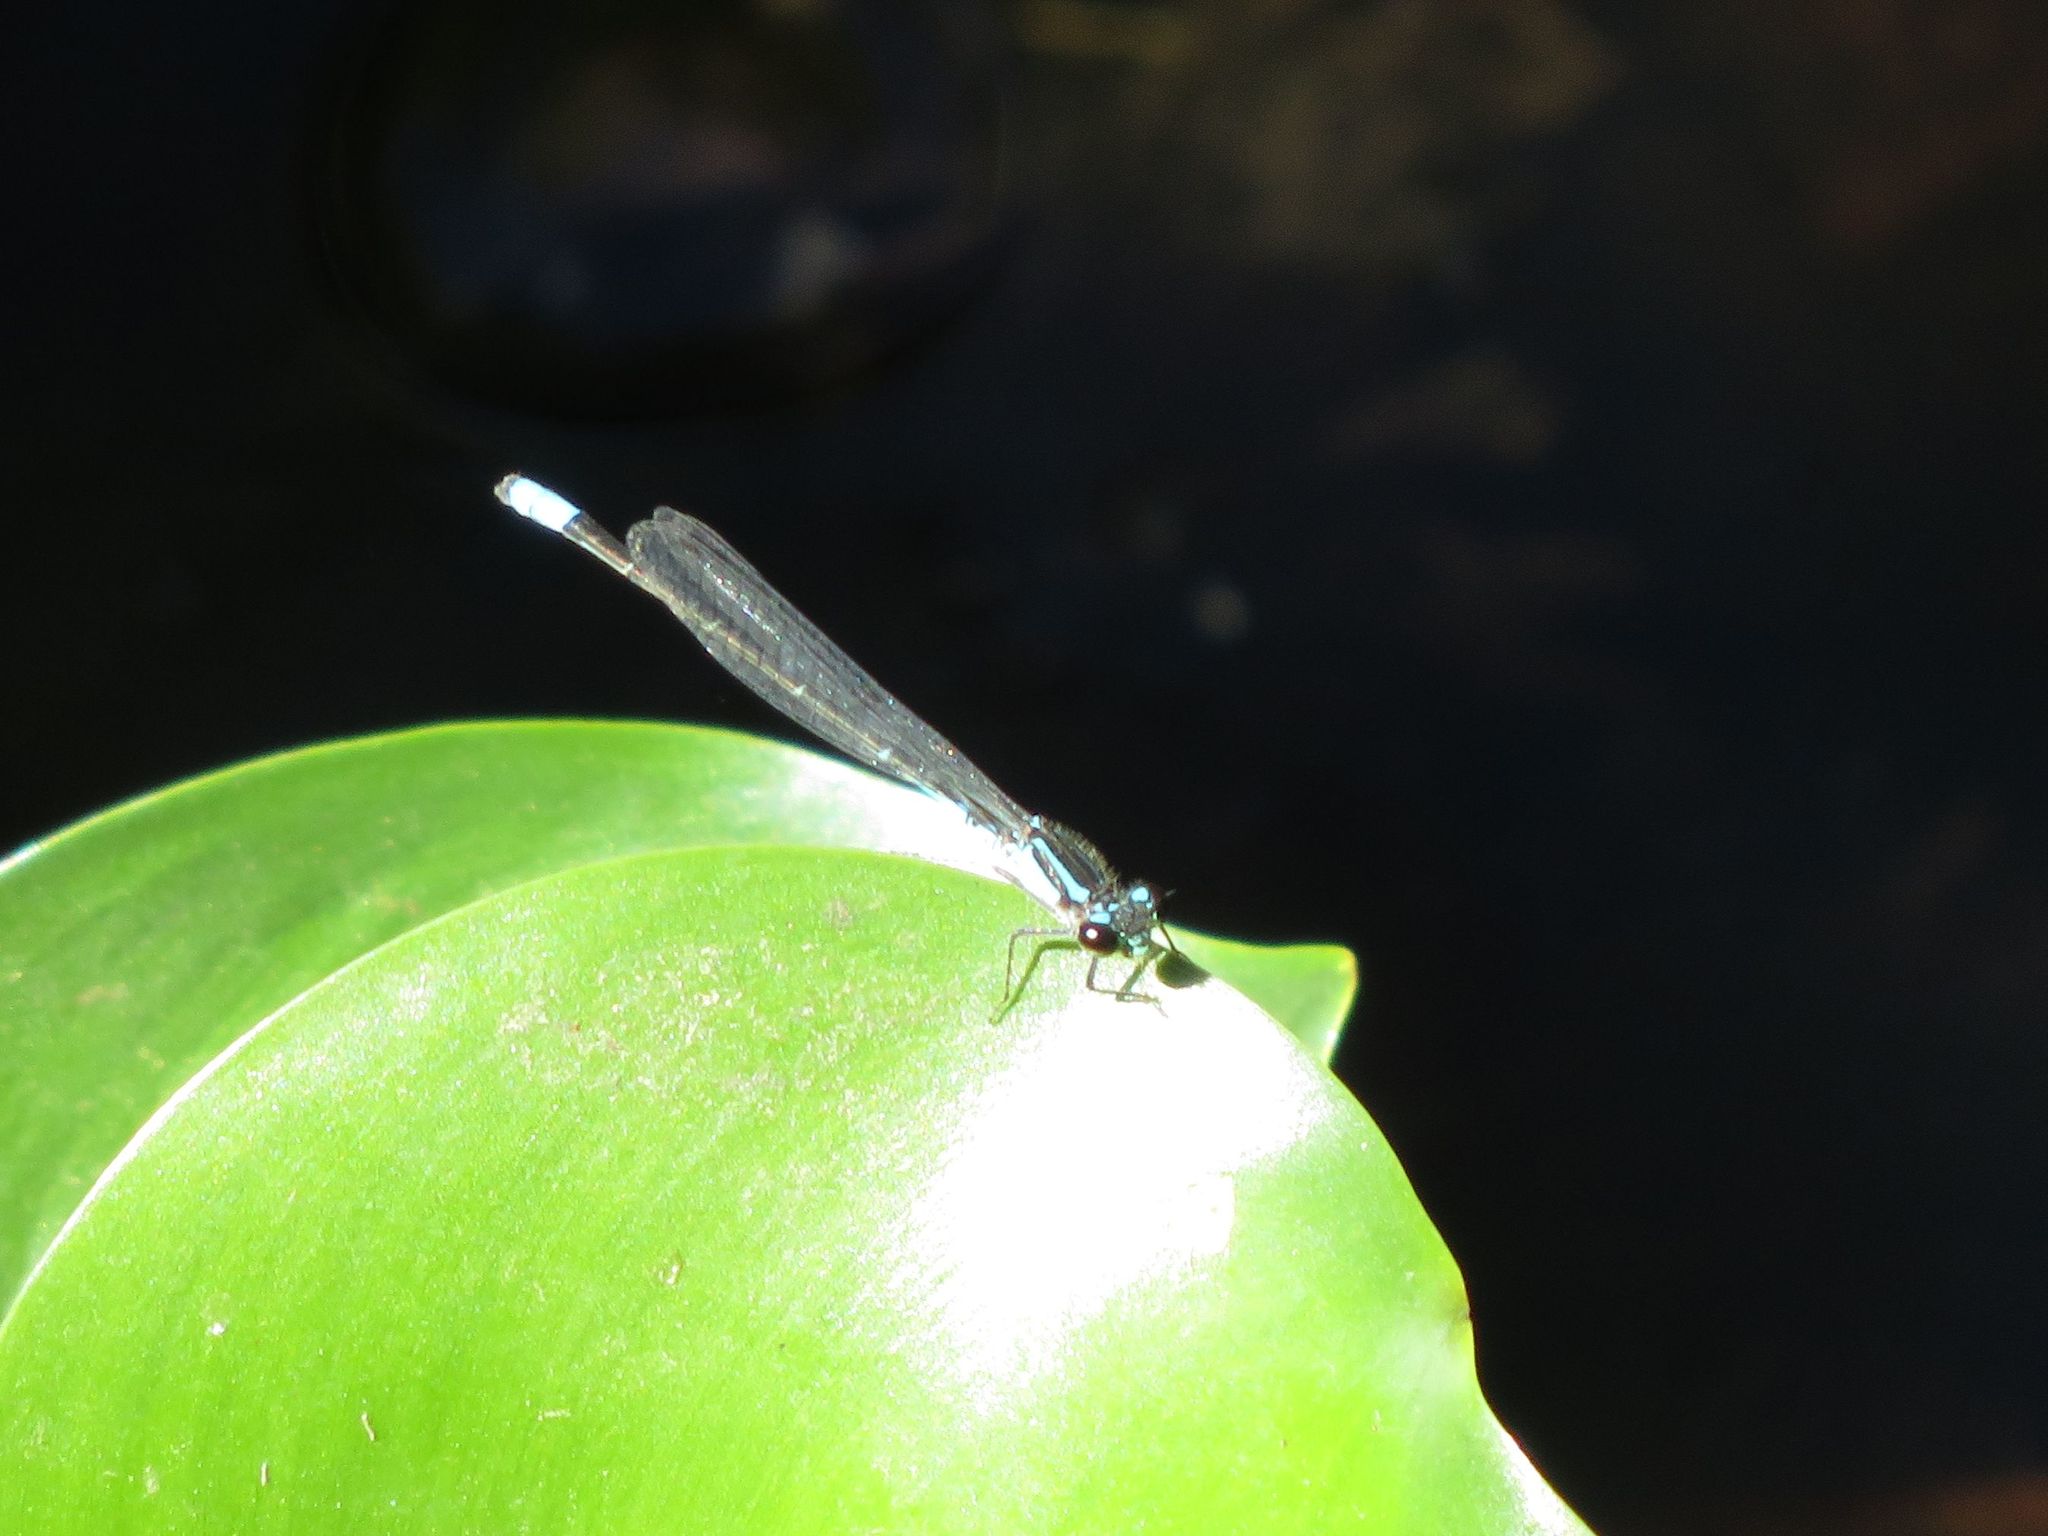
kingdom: Animalia
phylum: Arthropoda
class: Insecta
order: Odonata
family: Coenagrionidae
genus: Acanthagrion
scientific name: Acanthagrion lancea
